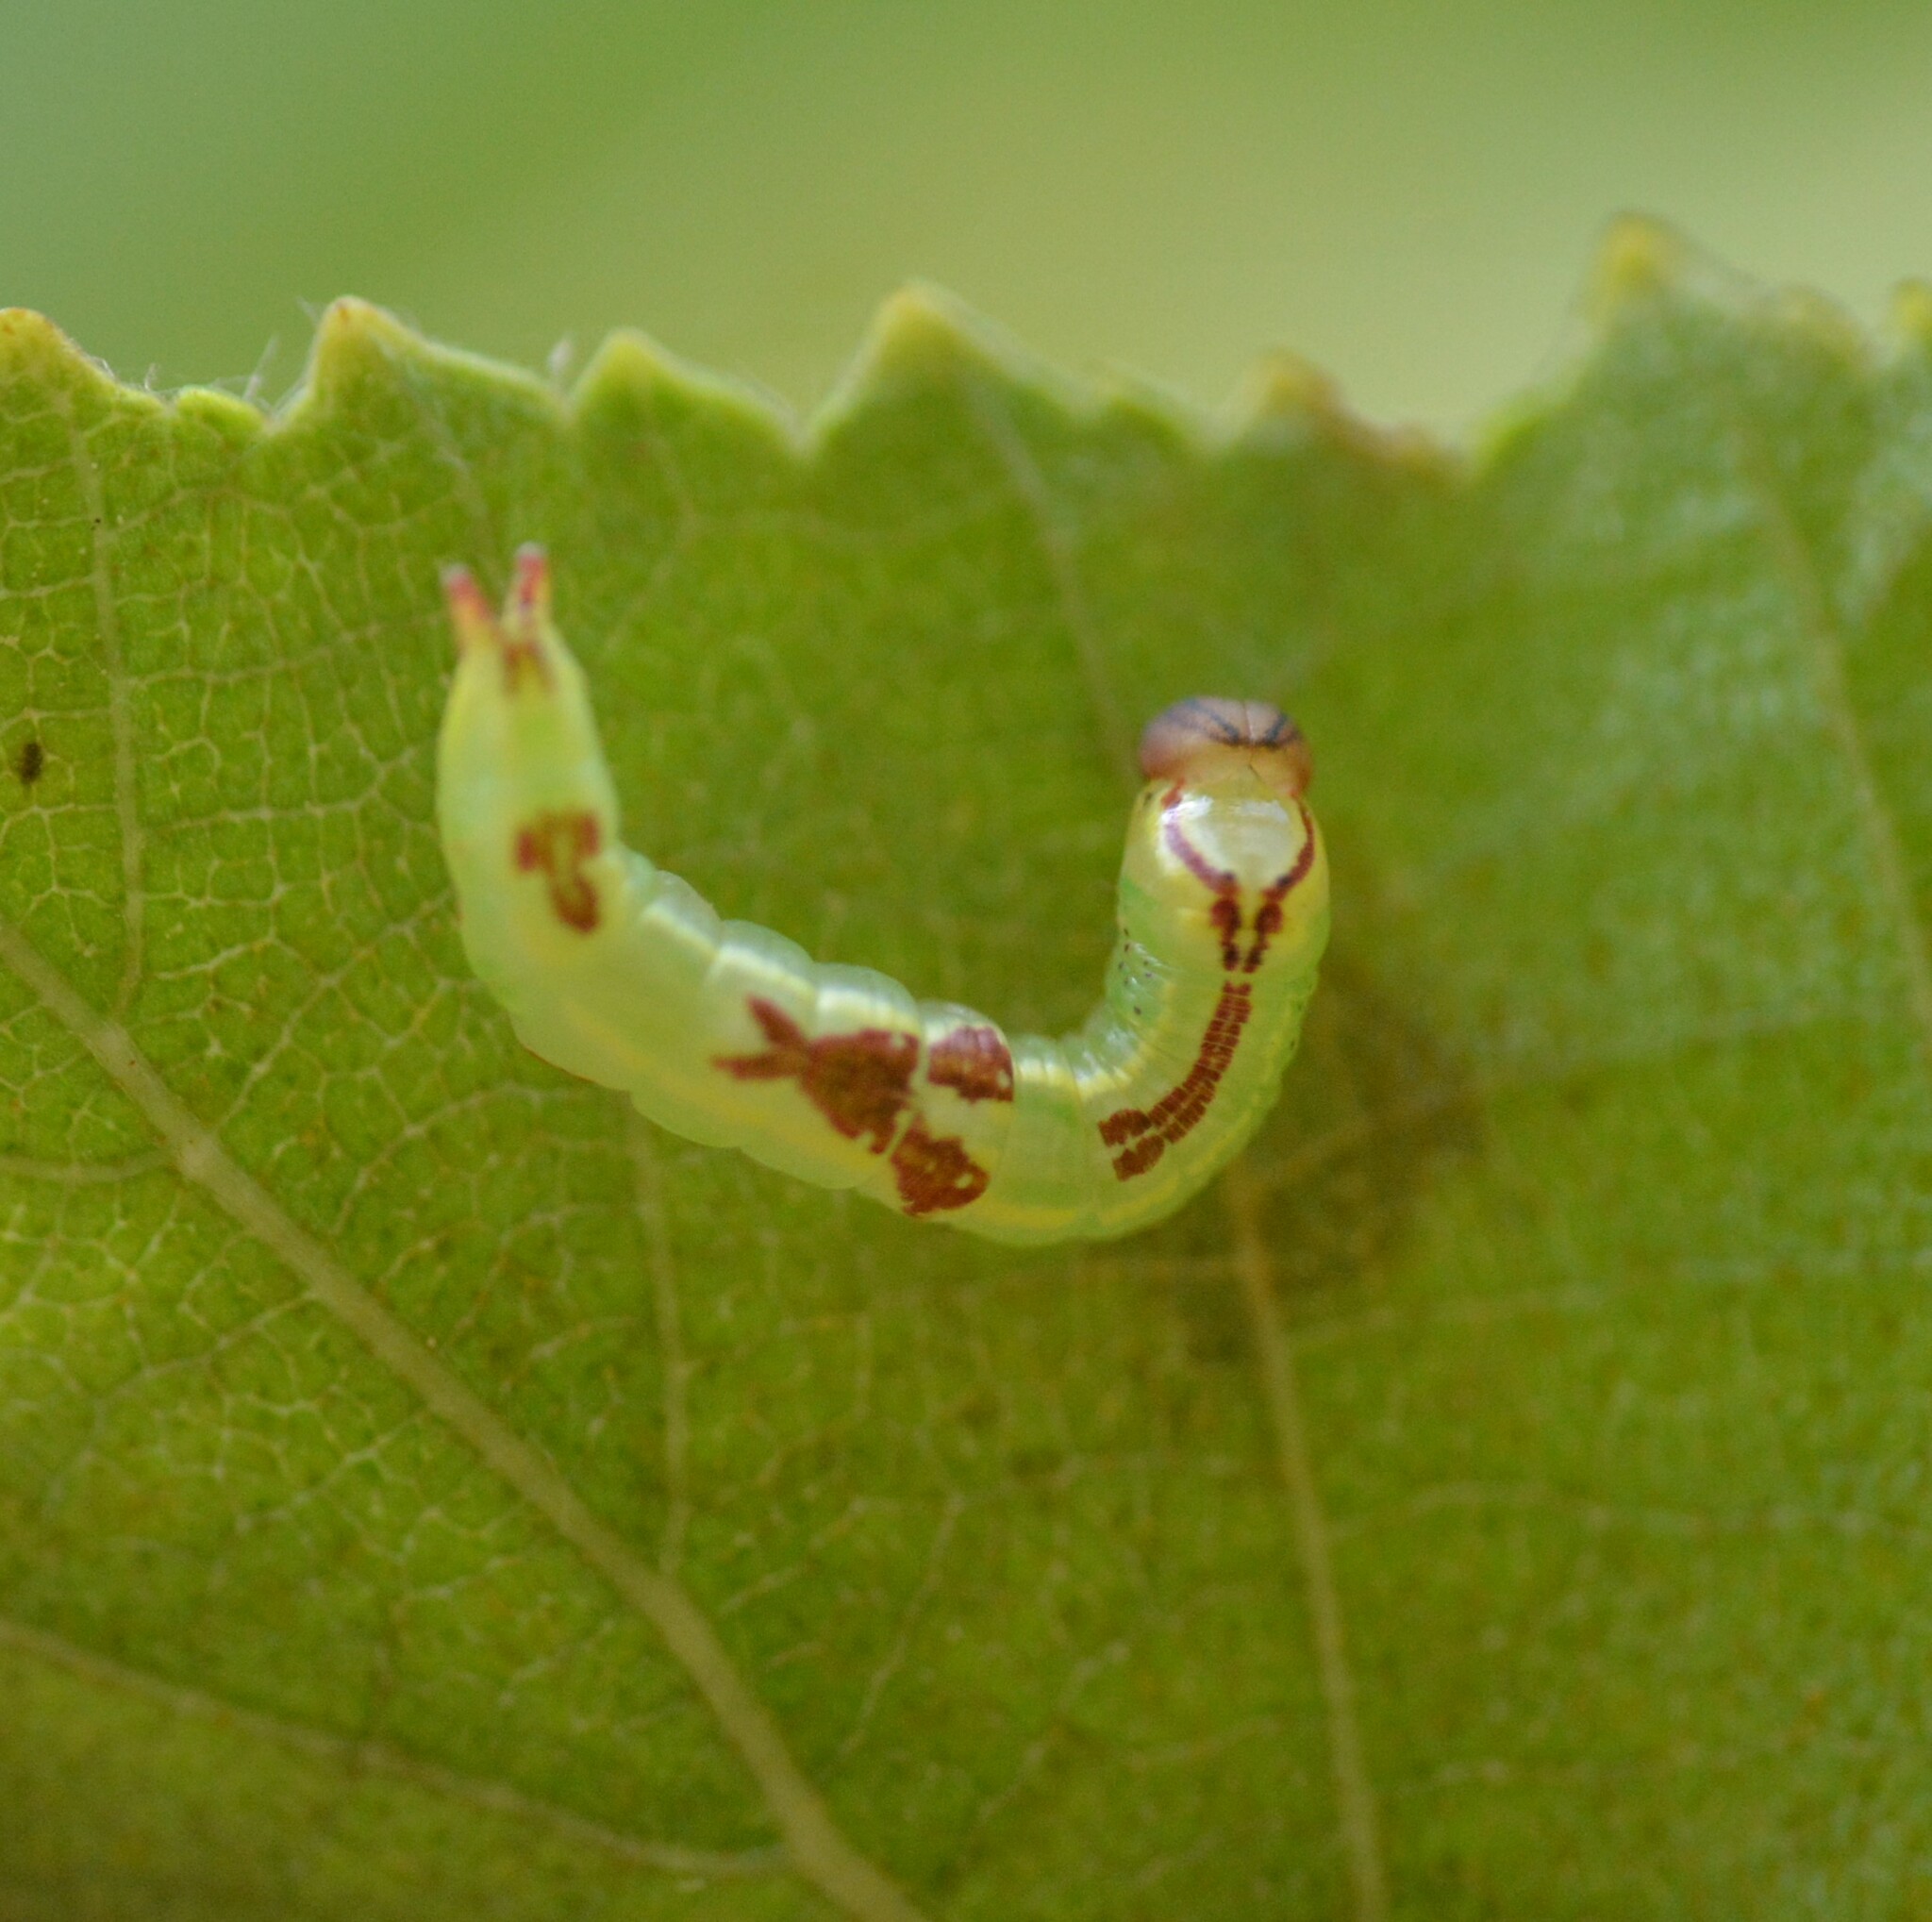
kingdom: Animalia
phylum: Arthropoda
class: Insecta
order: Lepidoptera
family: Notodontidae
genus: Disphragis
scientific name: Disphragis Cecrita guttivitta
